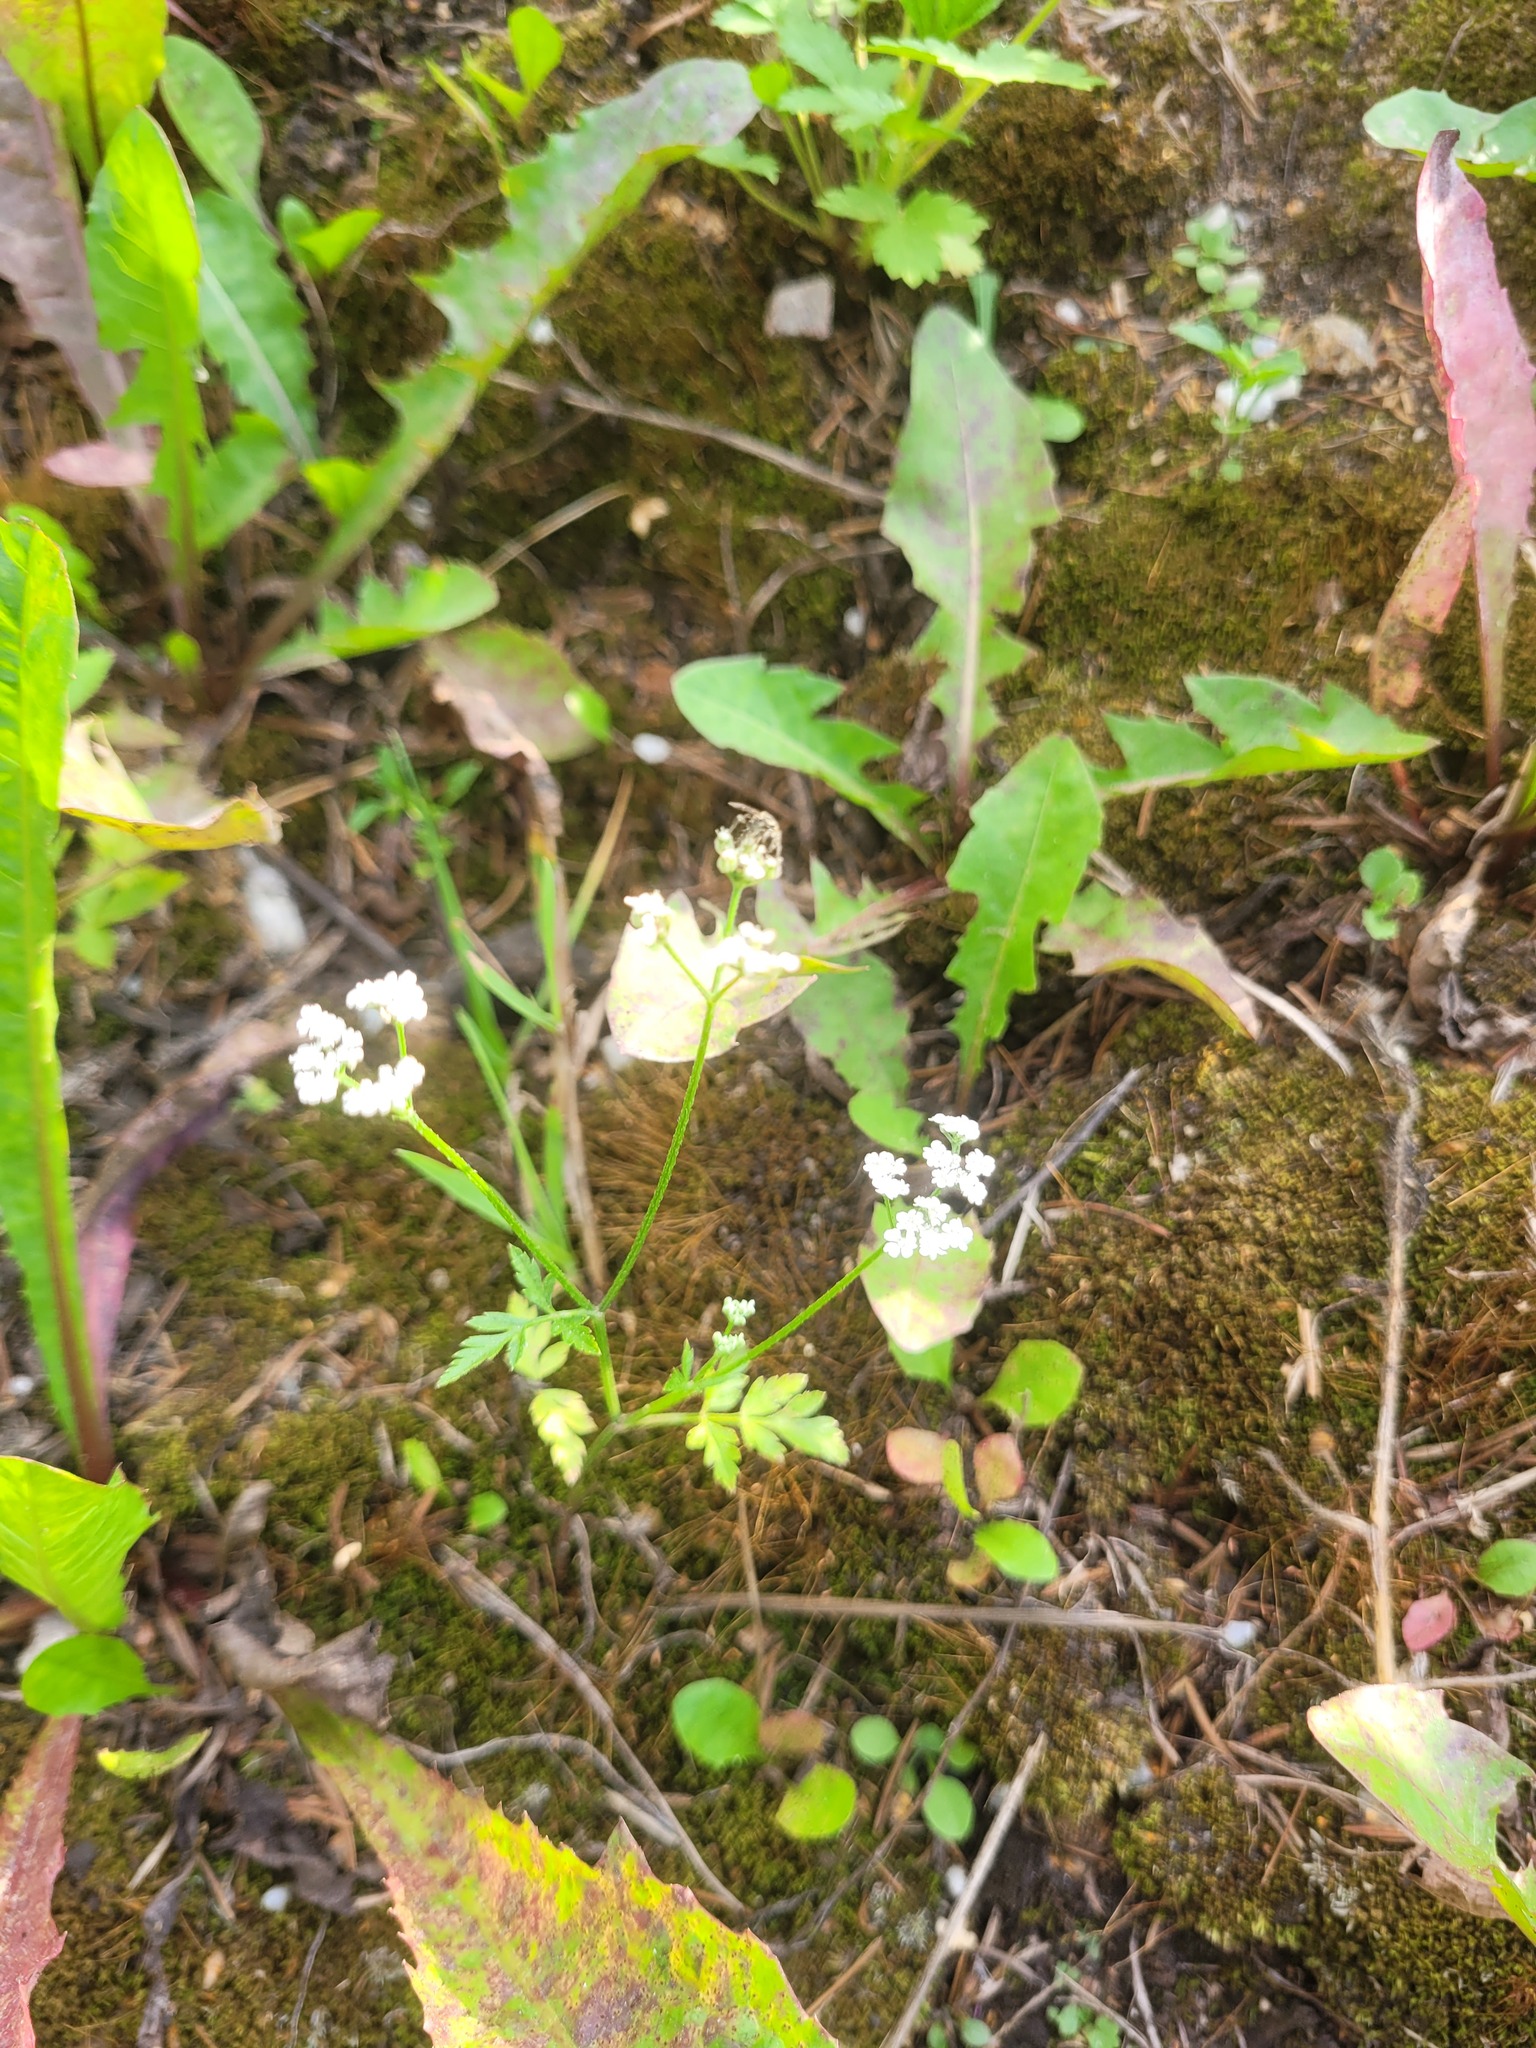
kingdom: Plantae
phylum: Tracheophyta
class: Magnoliopsida
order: Apiales
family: Apiaceae
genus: Torilis
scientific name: Torilis japonica
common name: Upright hedge-parsley
